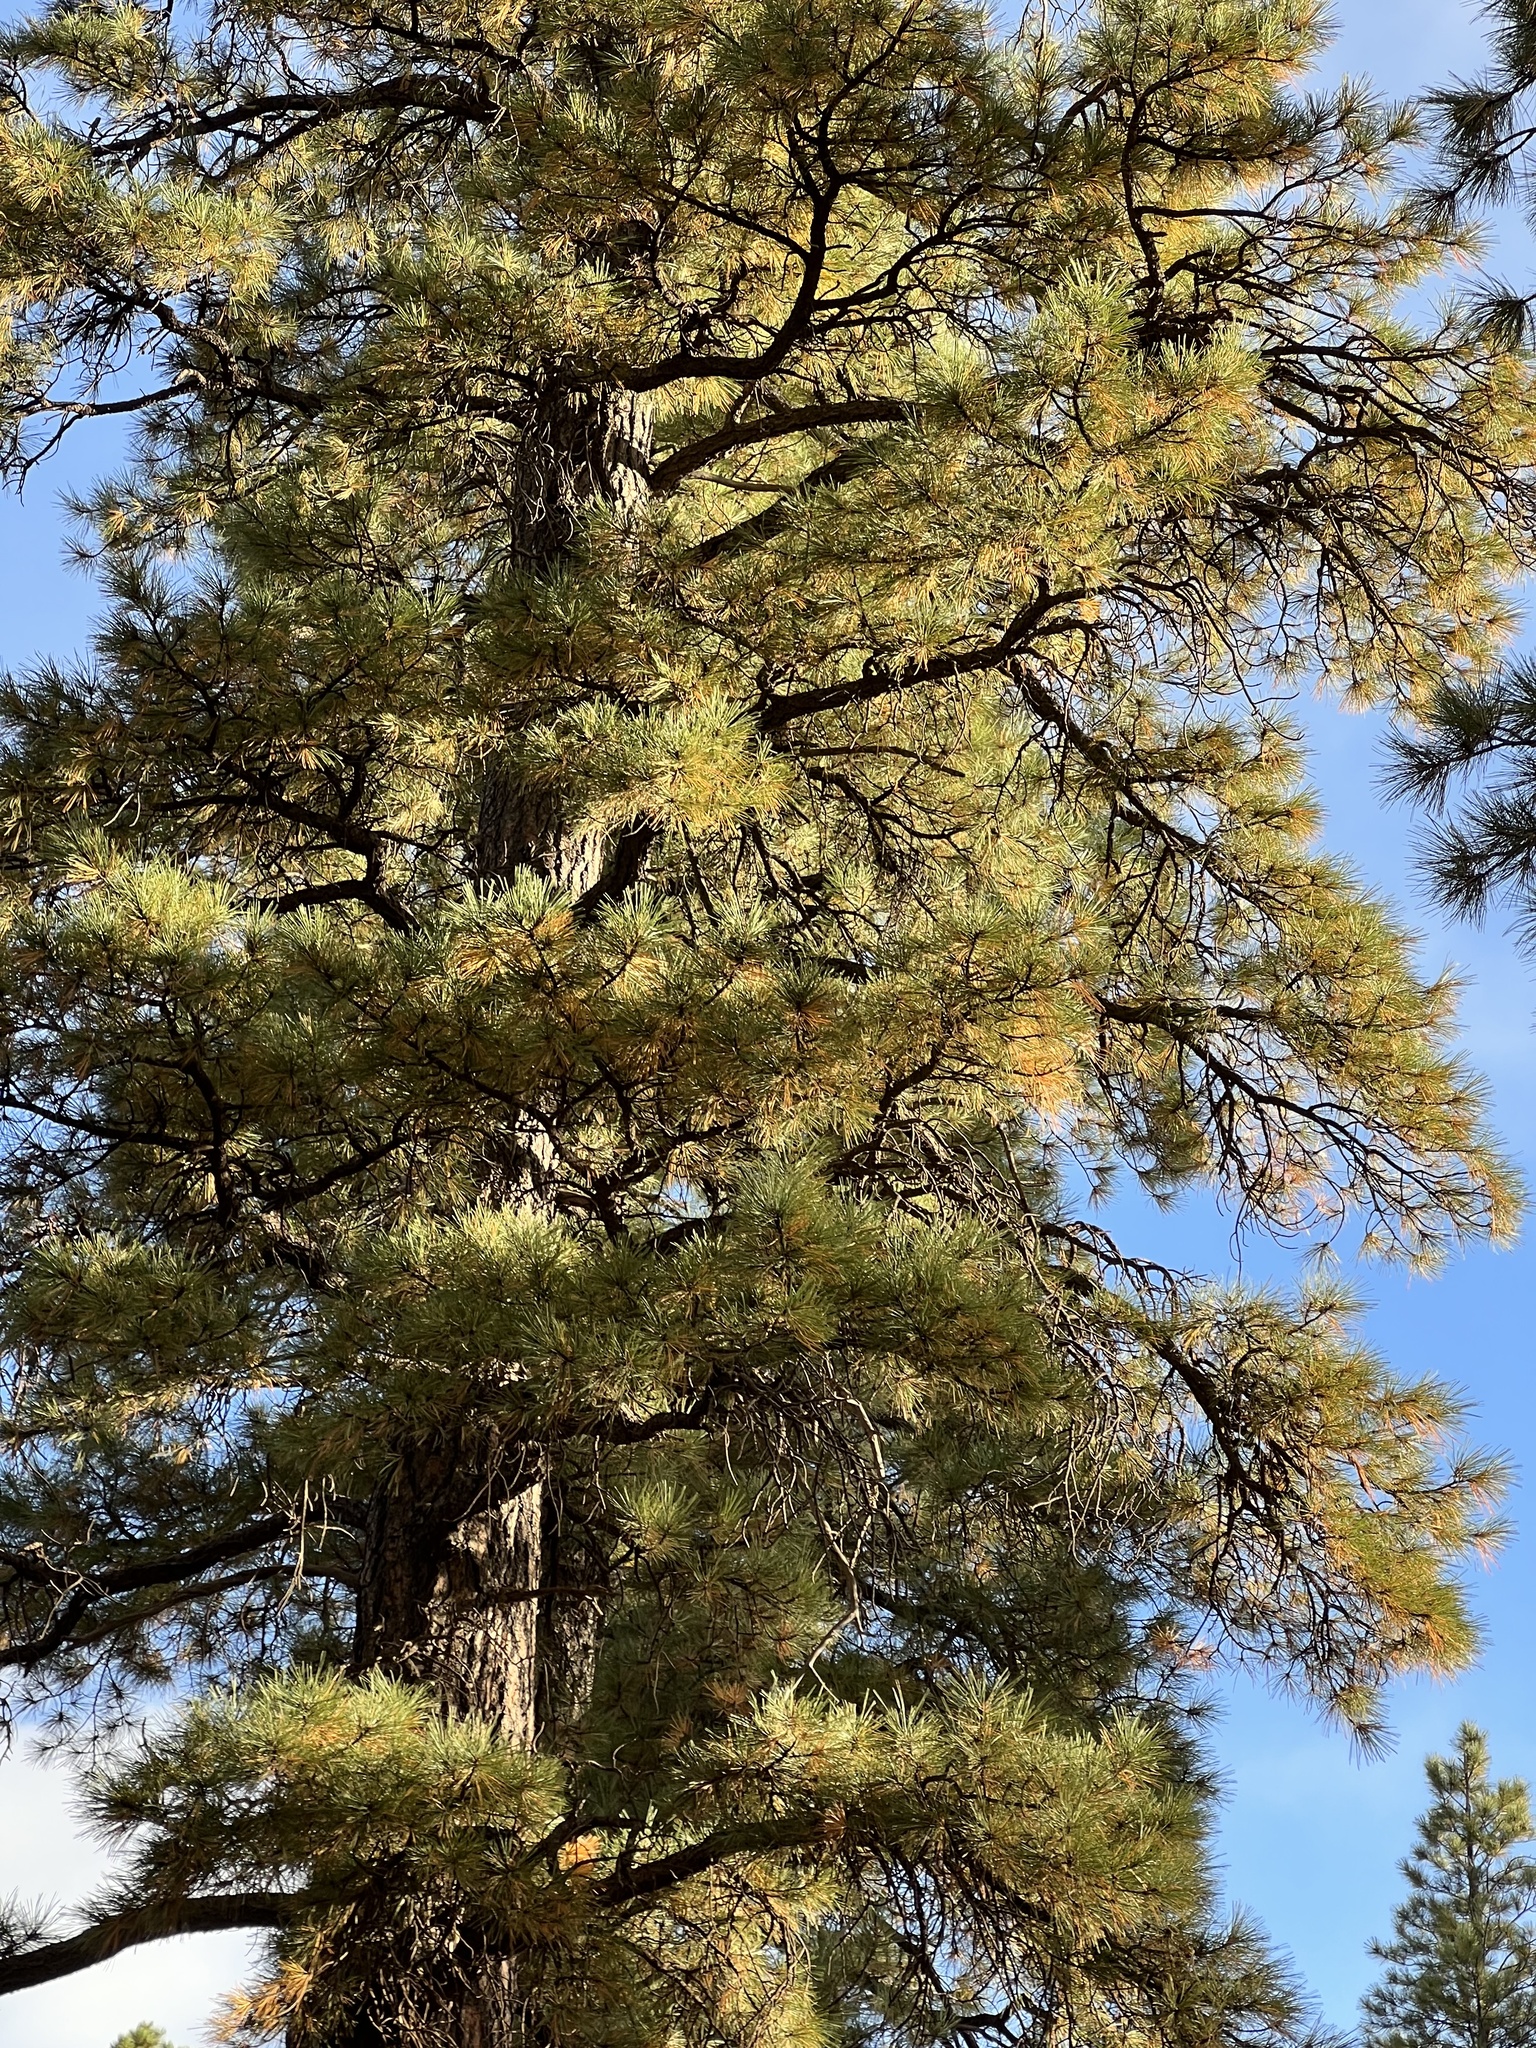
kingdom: Plantae
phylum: Tracheophyta
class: Pinopsida
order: Pinales
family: Pinaceae
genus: Pinus
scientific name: Pinus ponderosa
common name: Western yellow-pine
